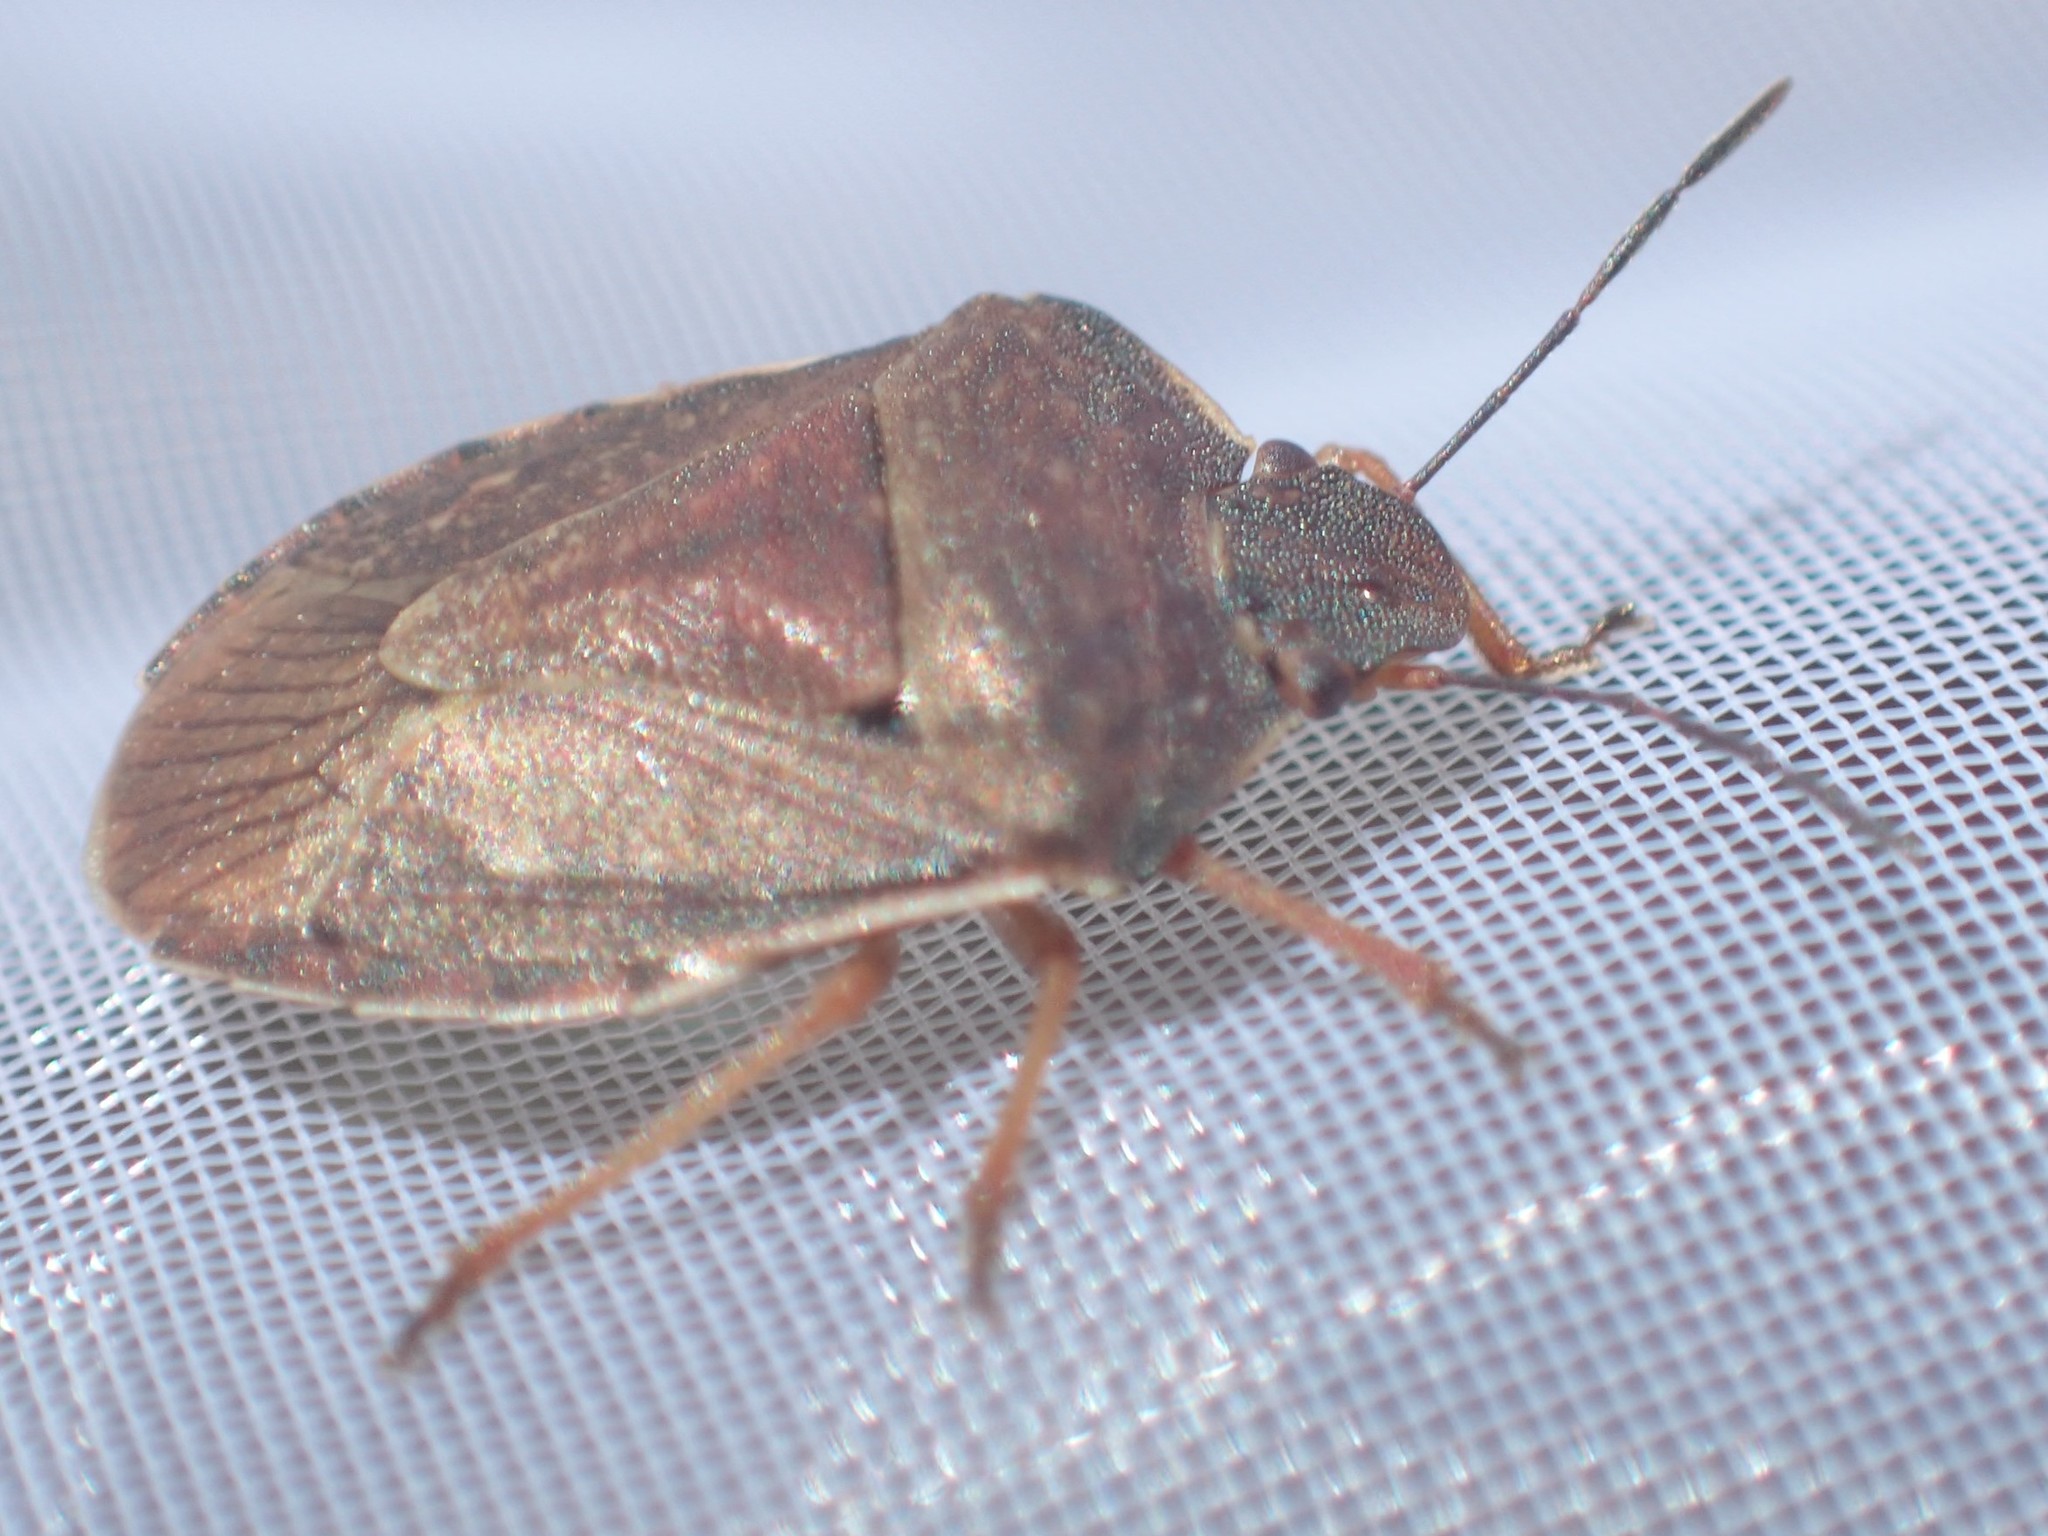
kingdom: Animalia
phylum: Arthropoda
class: Insecta
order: Hemiptera
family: Pentatomidae
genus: Tholosanus
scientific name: Tholosanus
